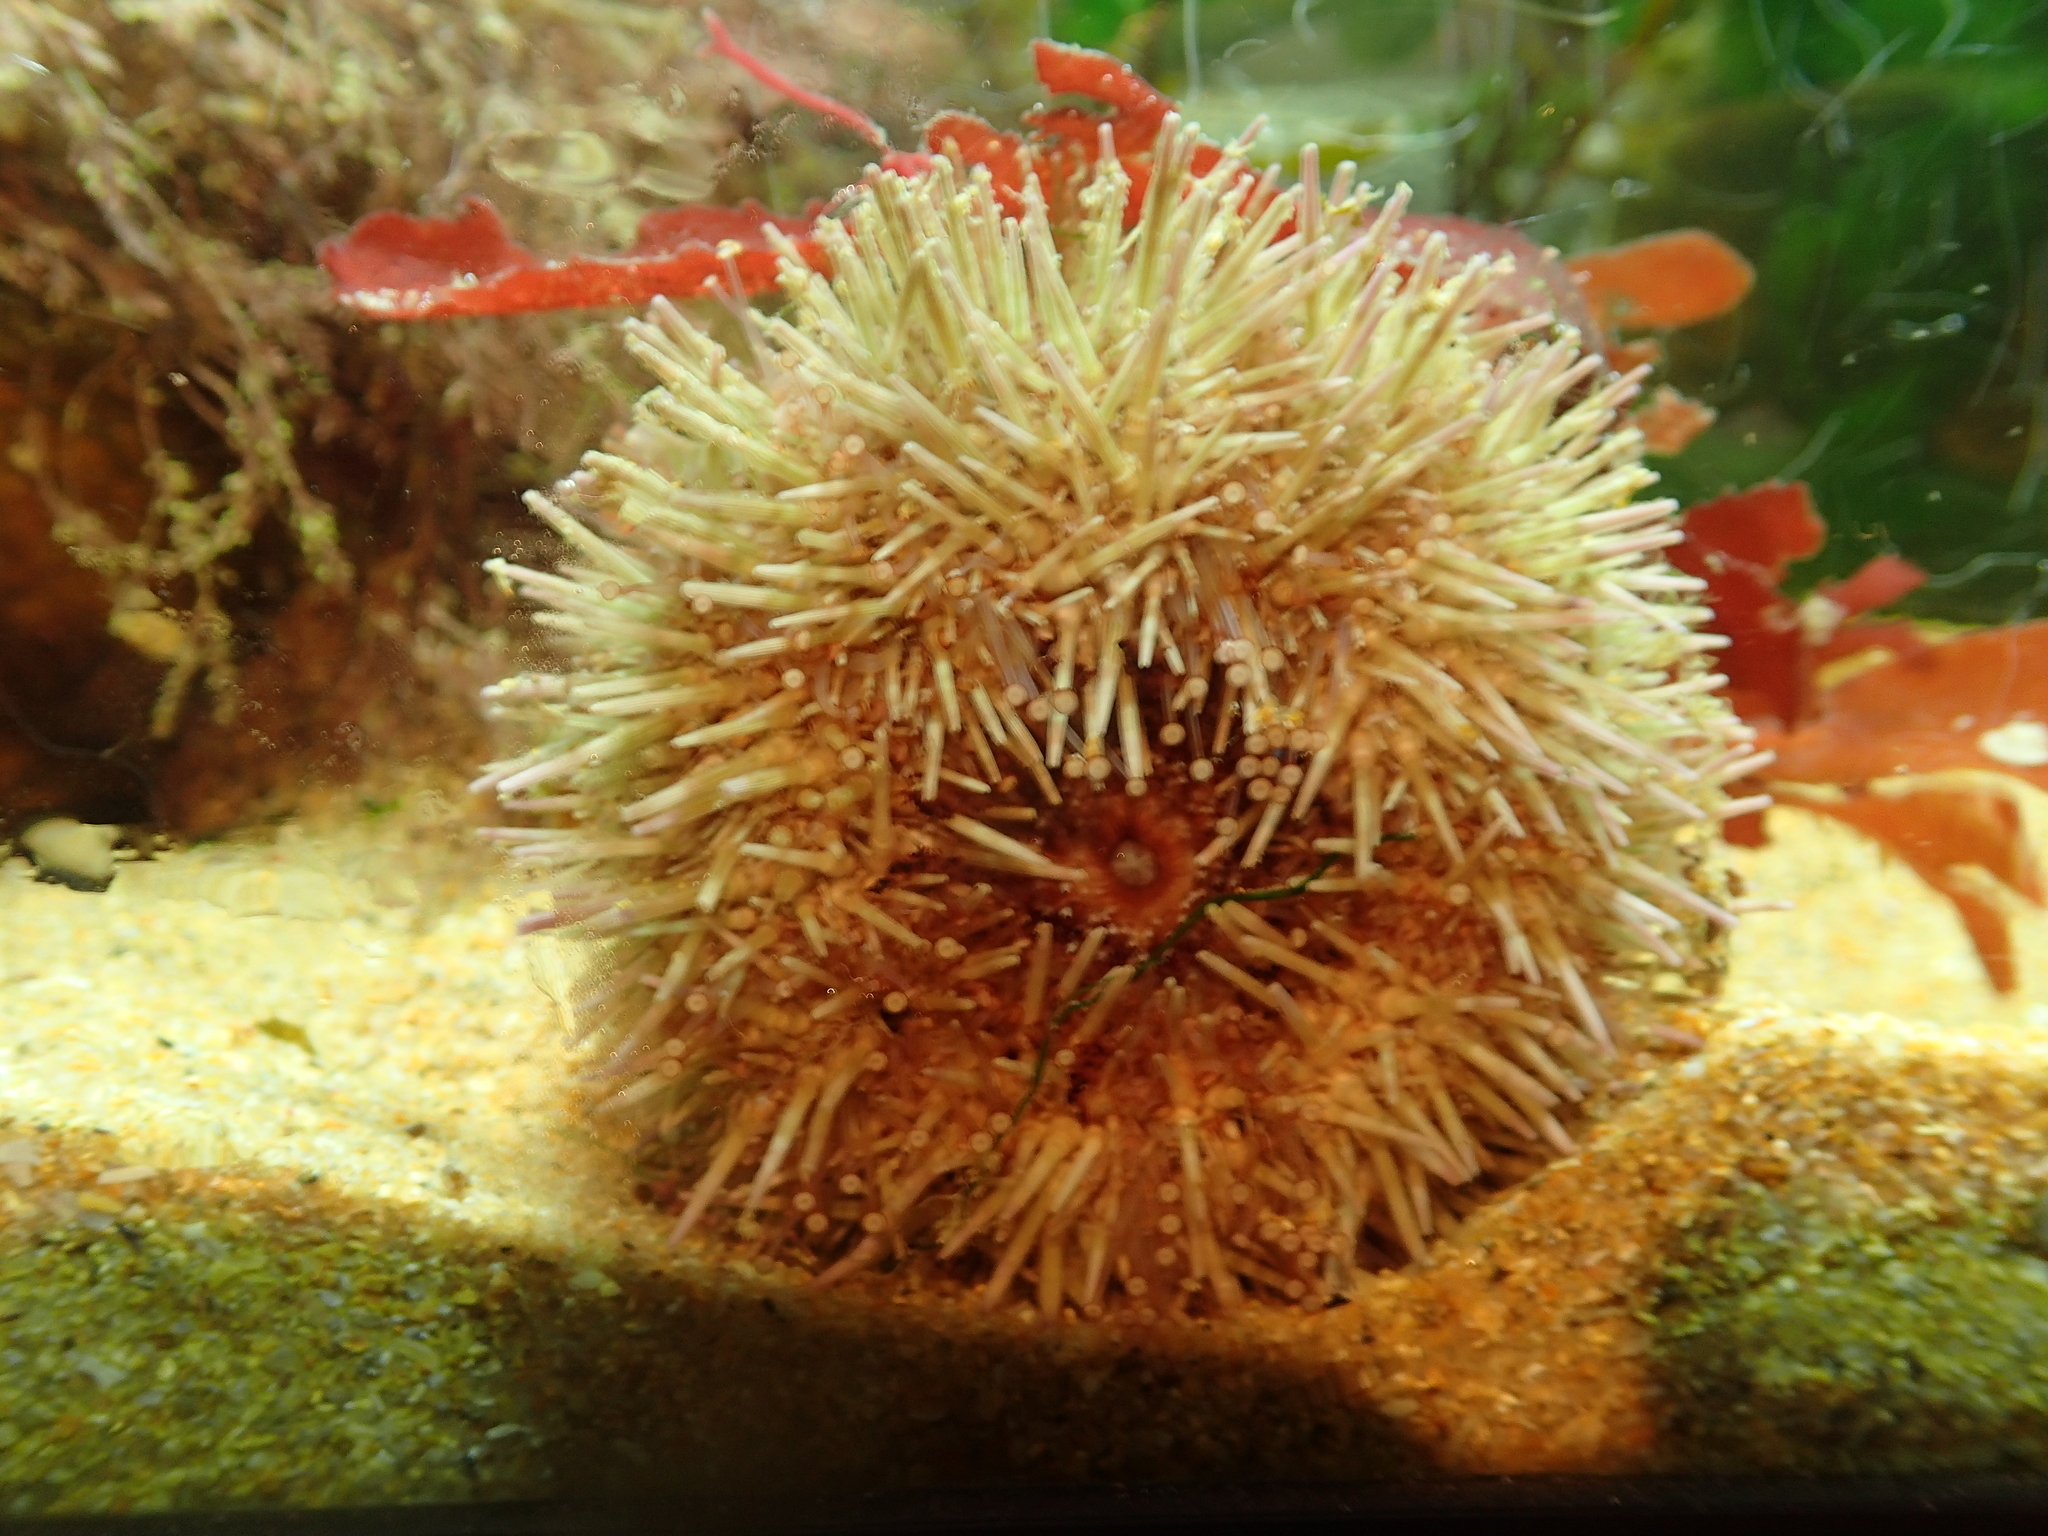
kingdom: Animalia
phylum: Echinodermata
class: Echinoidea
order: Camarodonta
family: Parechinidae
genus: Psammechinus
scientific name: Psammechinus miliaris
